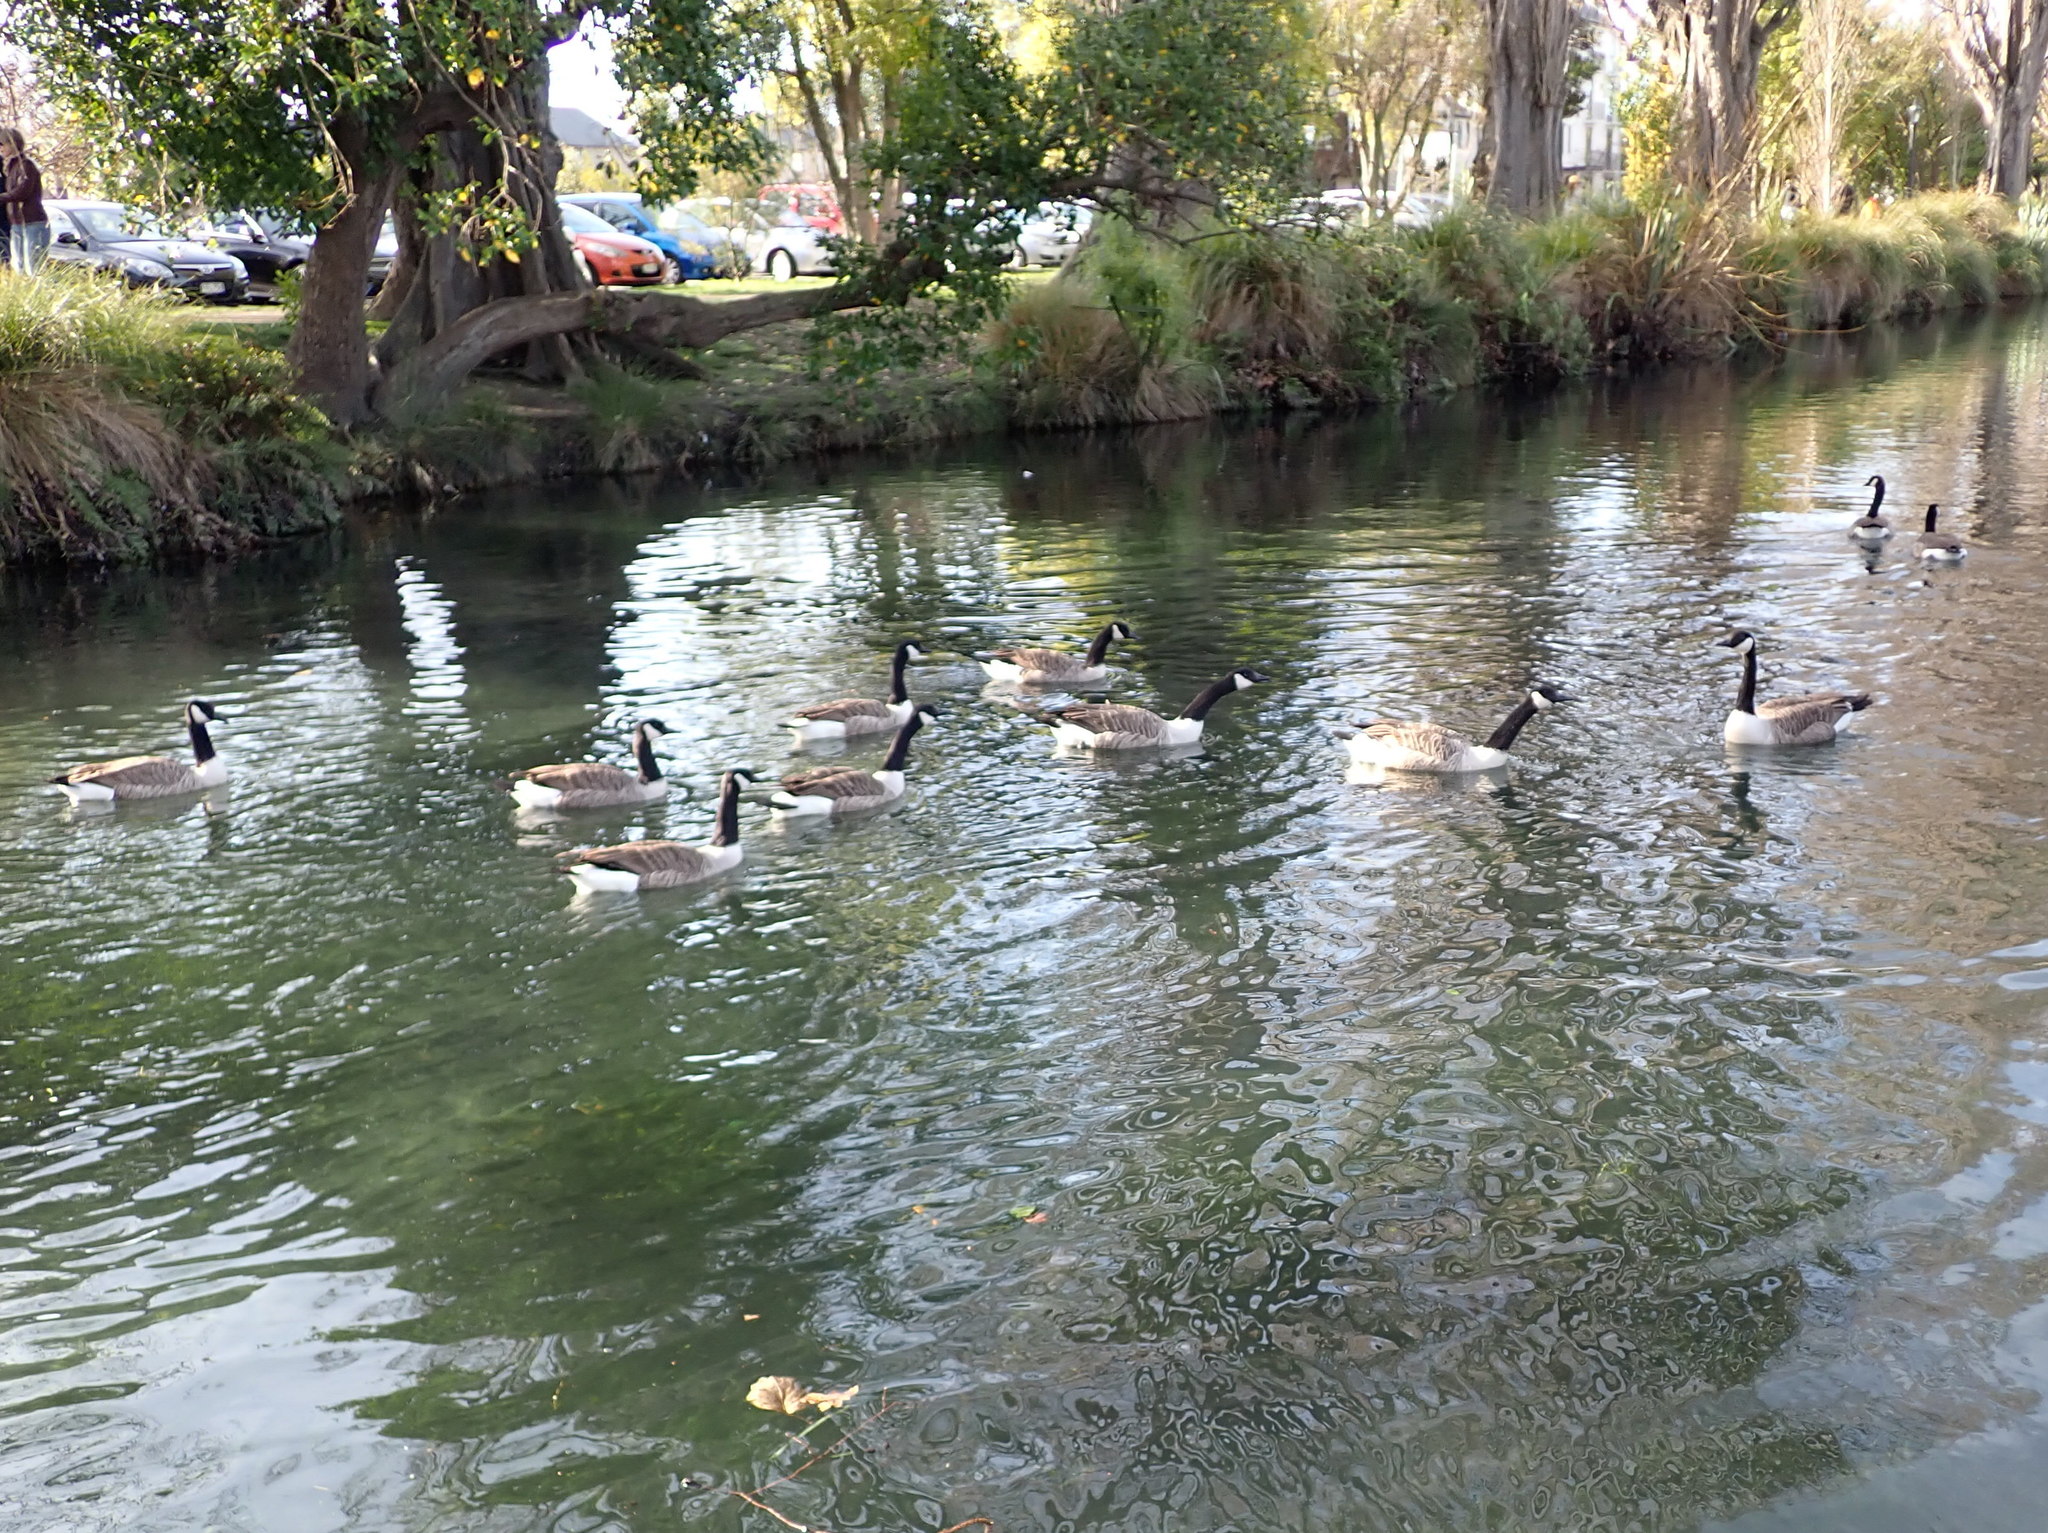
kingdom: Animalia
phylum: Chordata
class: Aves
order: Anseriformes
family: Anatidae
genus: Branta
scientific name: Branta canadensis
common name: Canada goose
